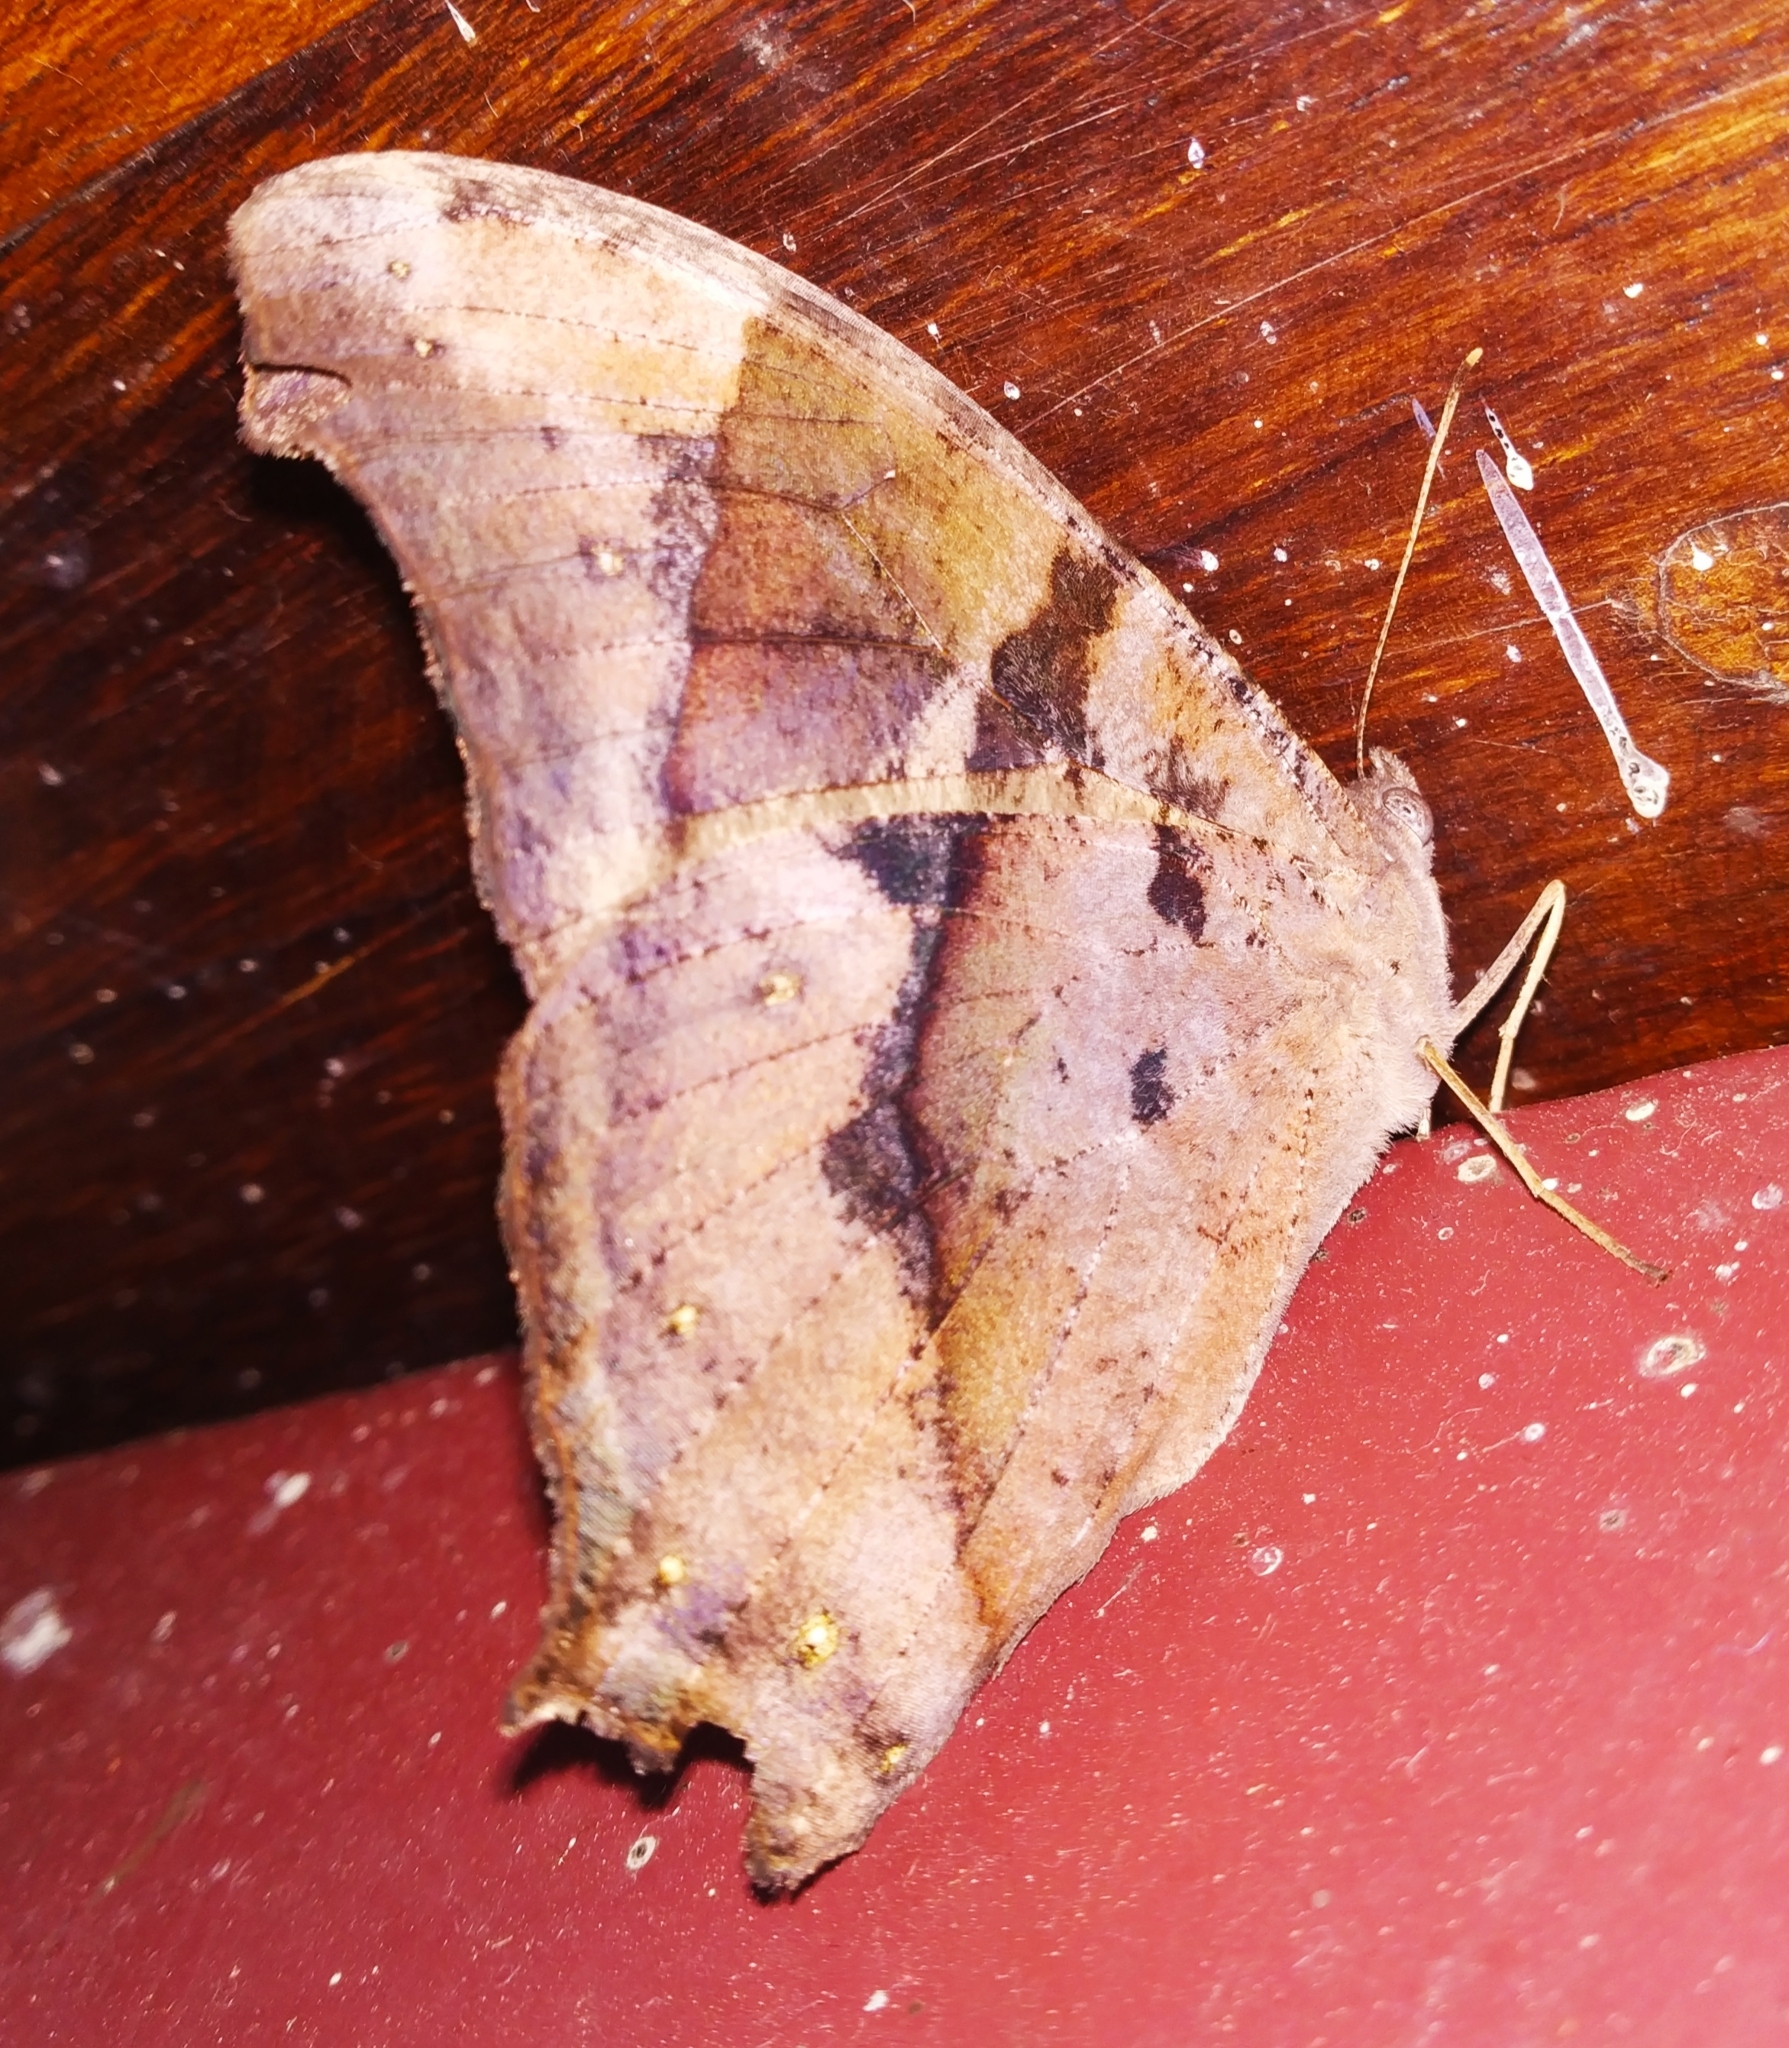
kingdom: Animalia
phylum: Arthropoda
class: Insecta
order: Lepidoptera
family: Nymphalidae
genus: Melanitis
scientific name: Melanitis leda
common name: Twilight brown
